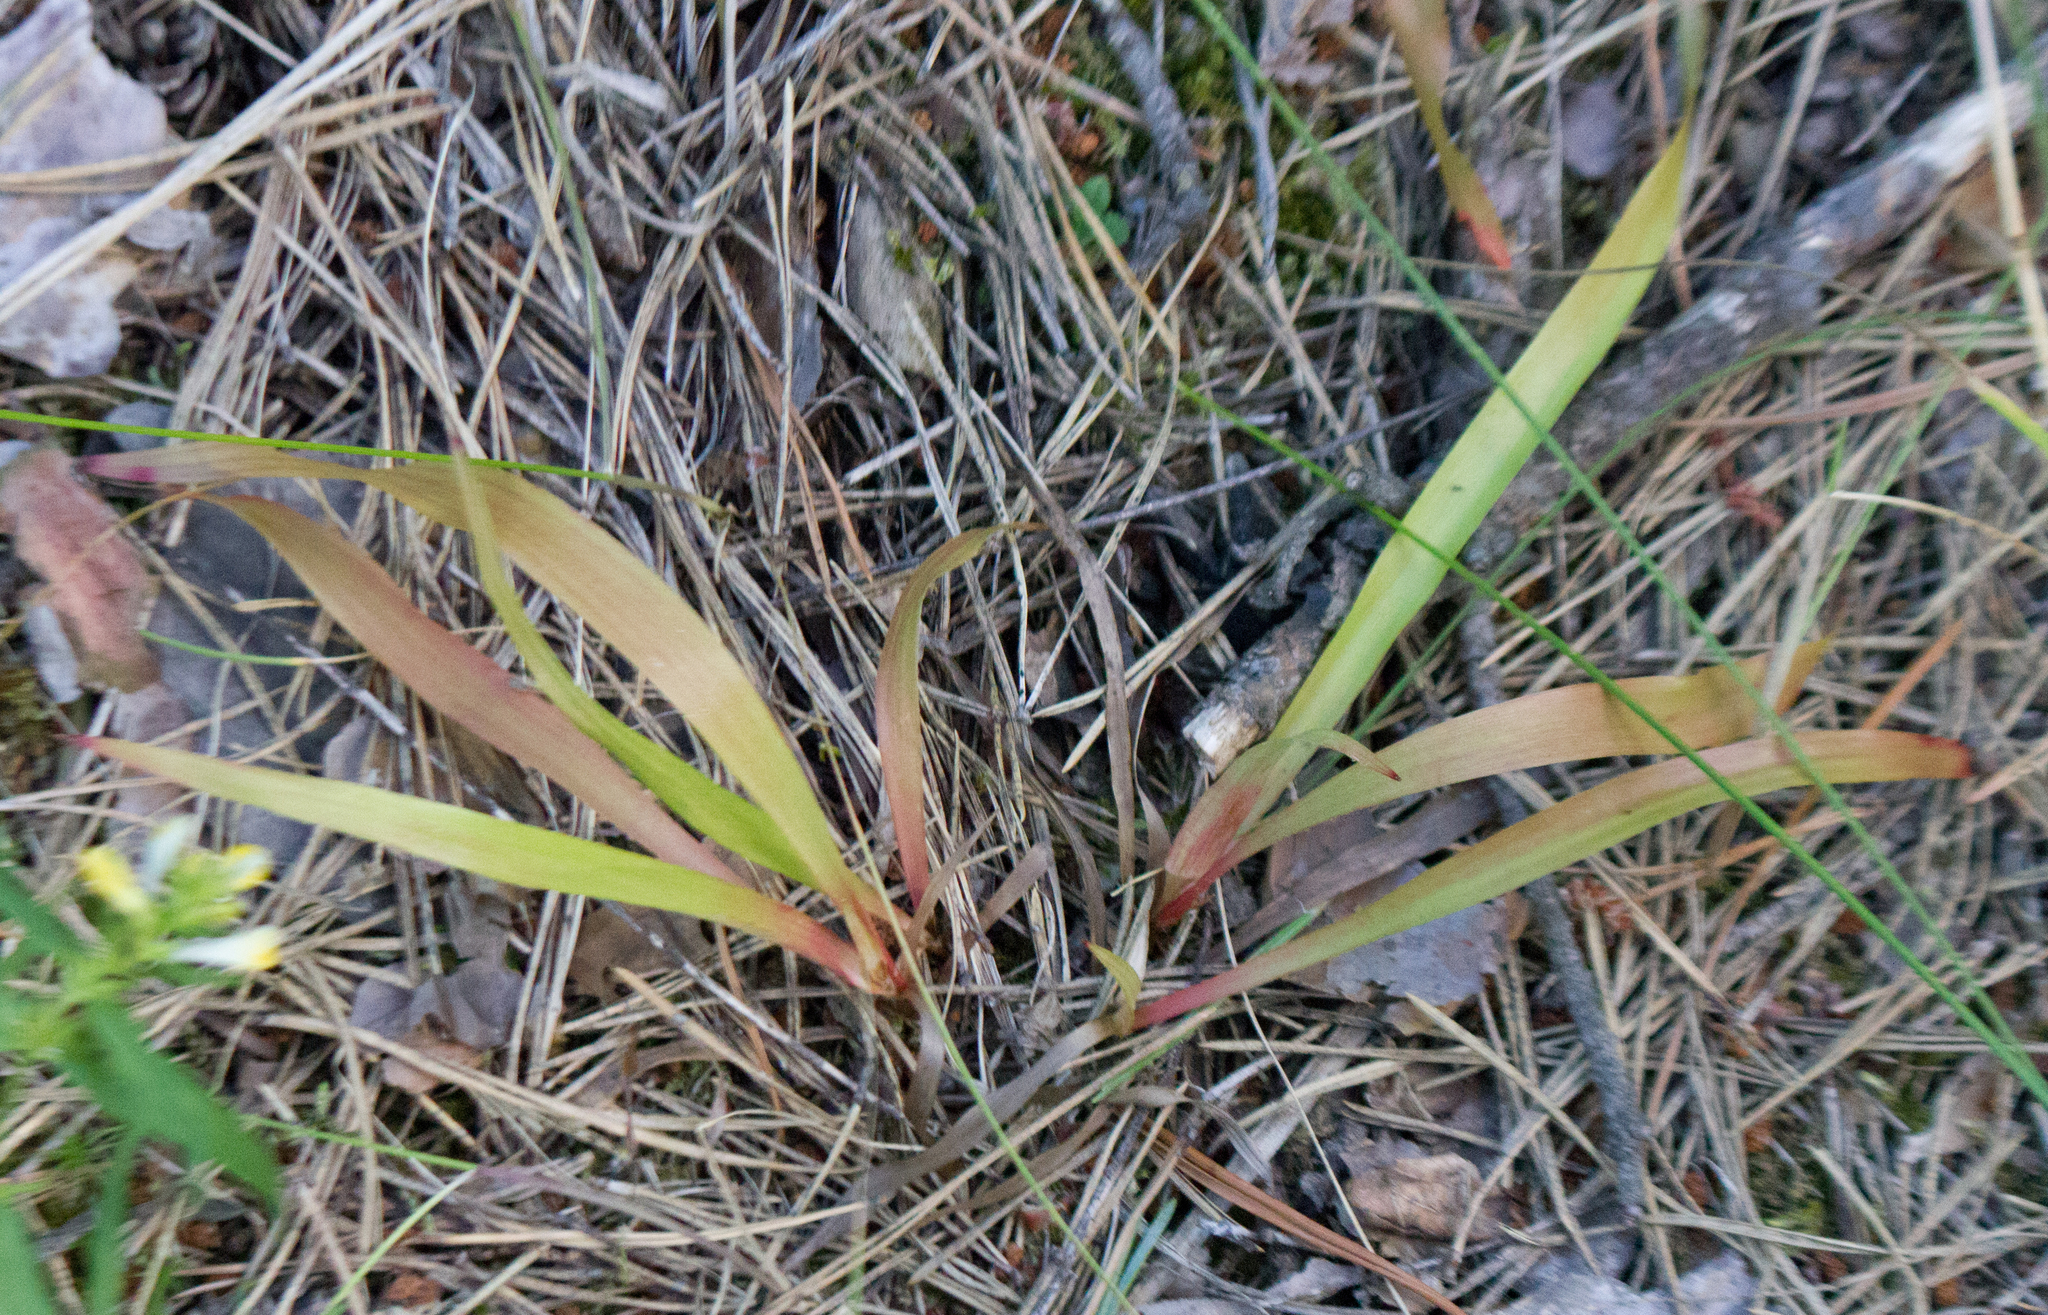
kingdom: Plantae
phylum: Tracheophyta
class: Liliopsida
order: Poales
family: Juncaceae
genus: Luzula
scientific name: Luzula pilosa
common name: Hairy wood-rush
